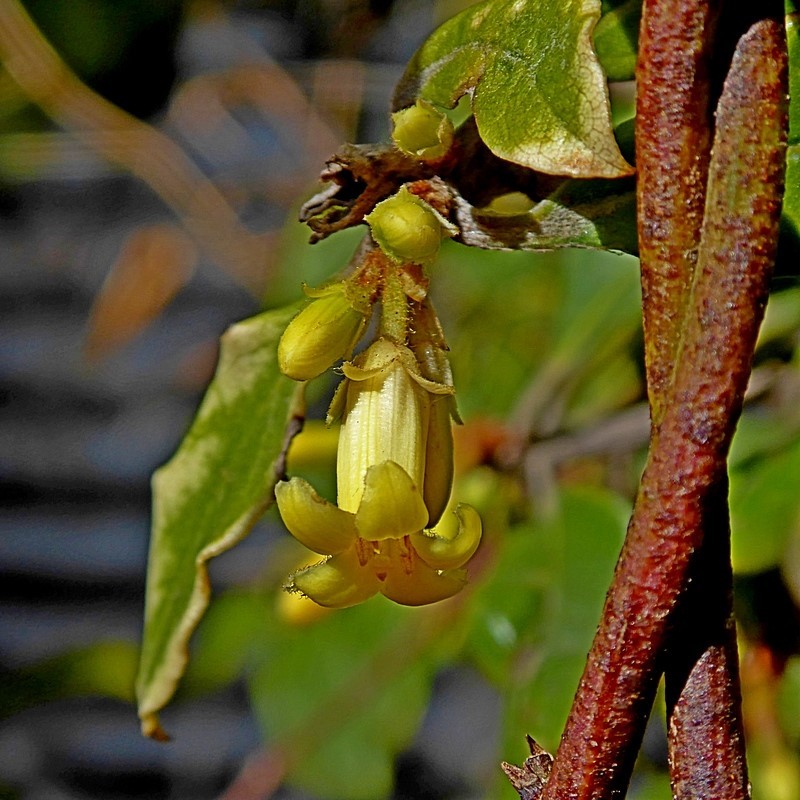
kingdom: Plantae
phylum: Tracheophyta
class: Magnoliopsida
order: Apiales
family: Pittosporaceae
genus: Pittosporum
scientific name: Pittosporum revolutum
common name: Brisbane-laurel
